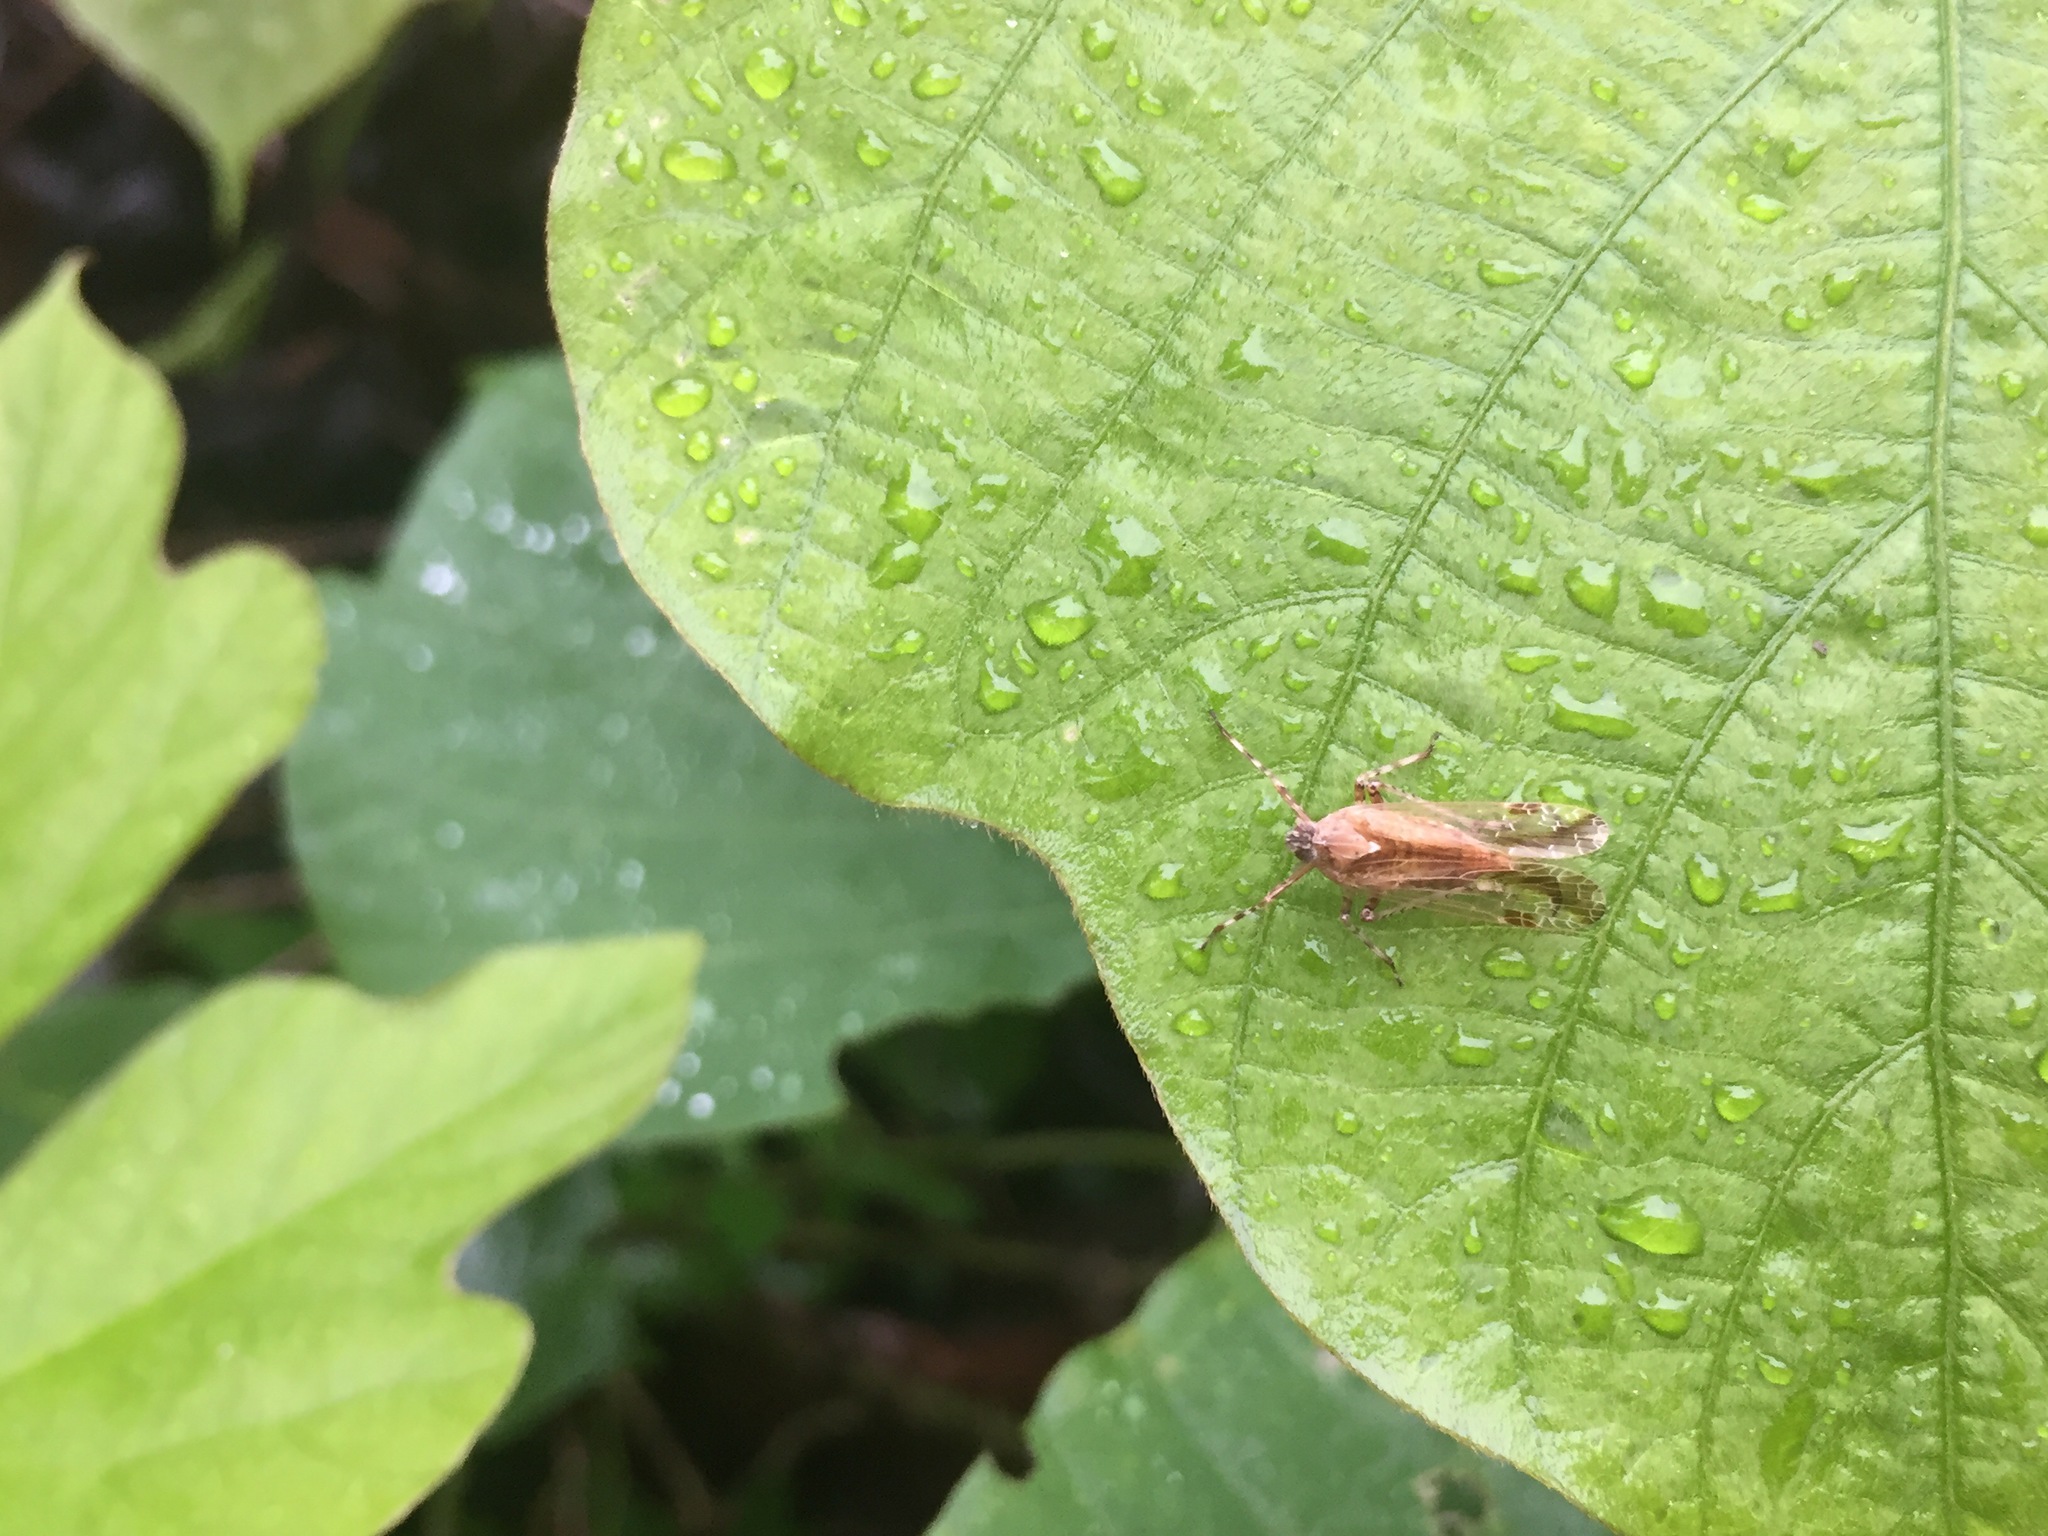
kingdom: Animalia
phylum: Arthropoda
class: Insecta
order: Hemiptera
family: Dictyopharidae
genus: Orthopagus
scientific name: Orthopagus lunulifer
